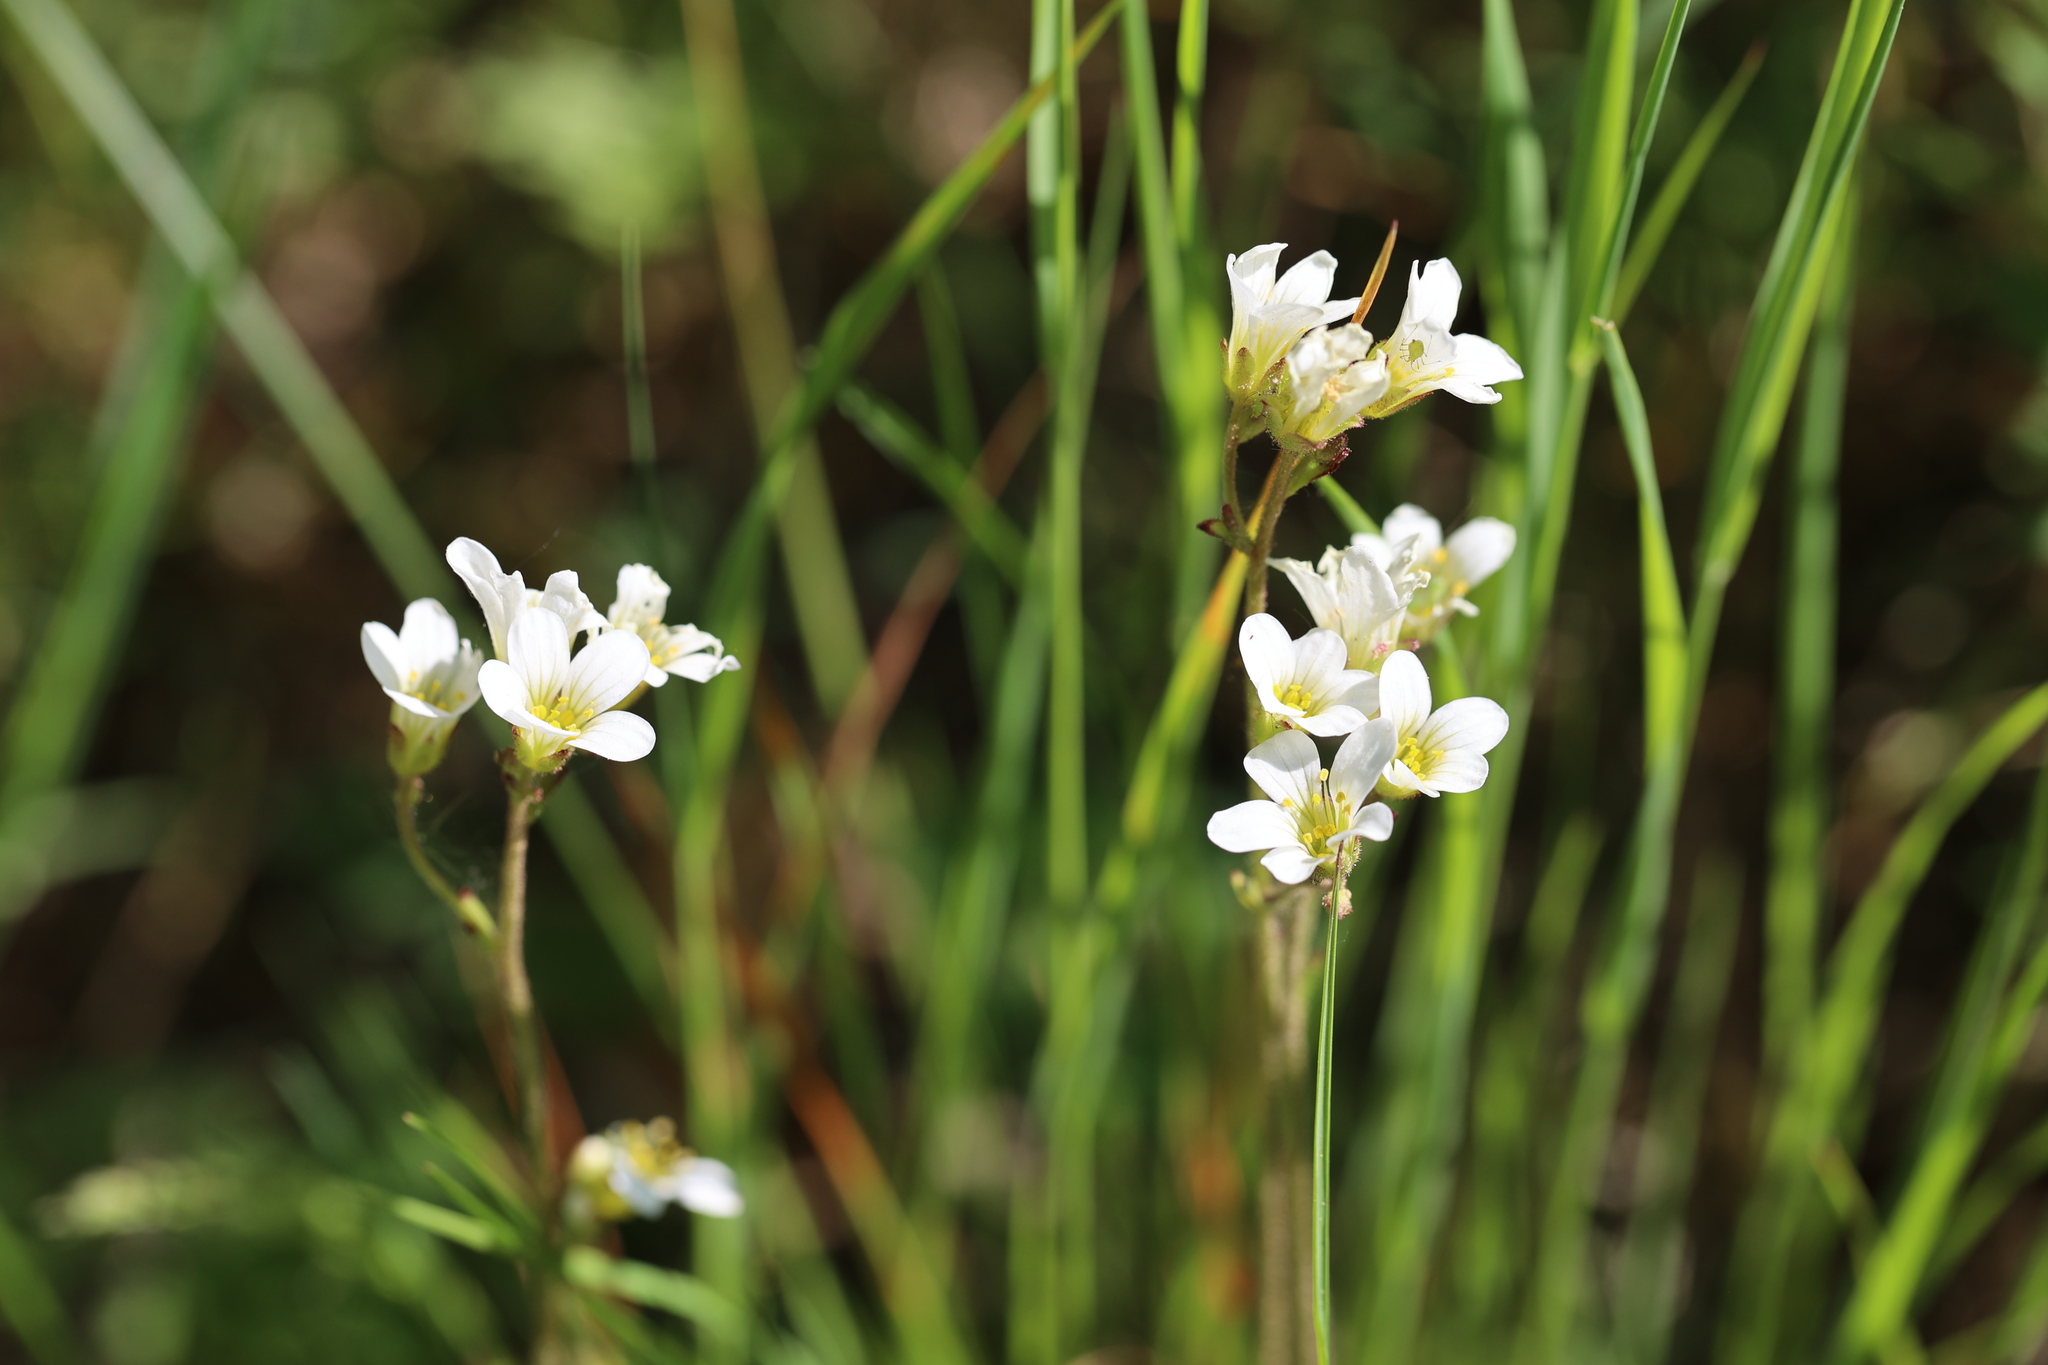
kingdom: Plantae
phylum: Tracheophyta
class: Magnoliopsida
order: Saxifragales
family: Saxifragaceae
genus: Saxifraga
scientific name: Saxifraga granulata
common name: Meadow saxifrage
